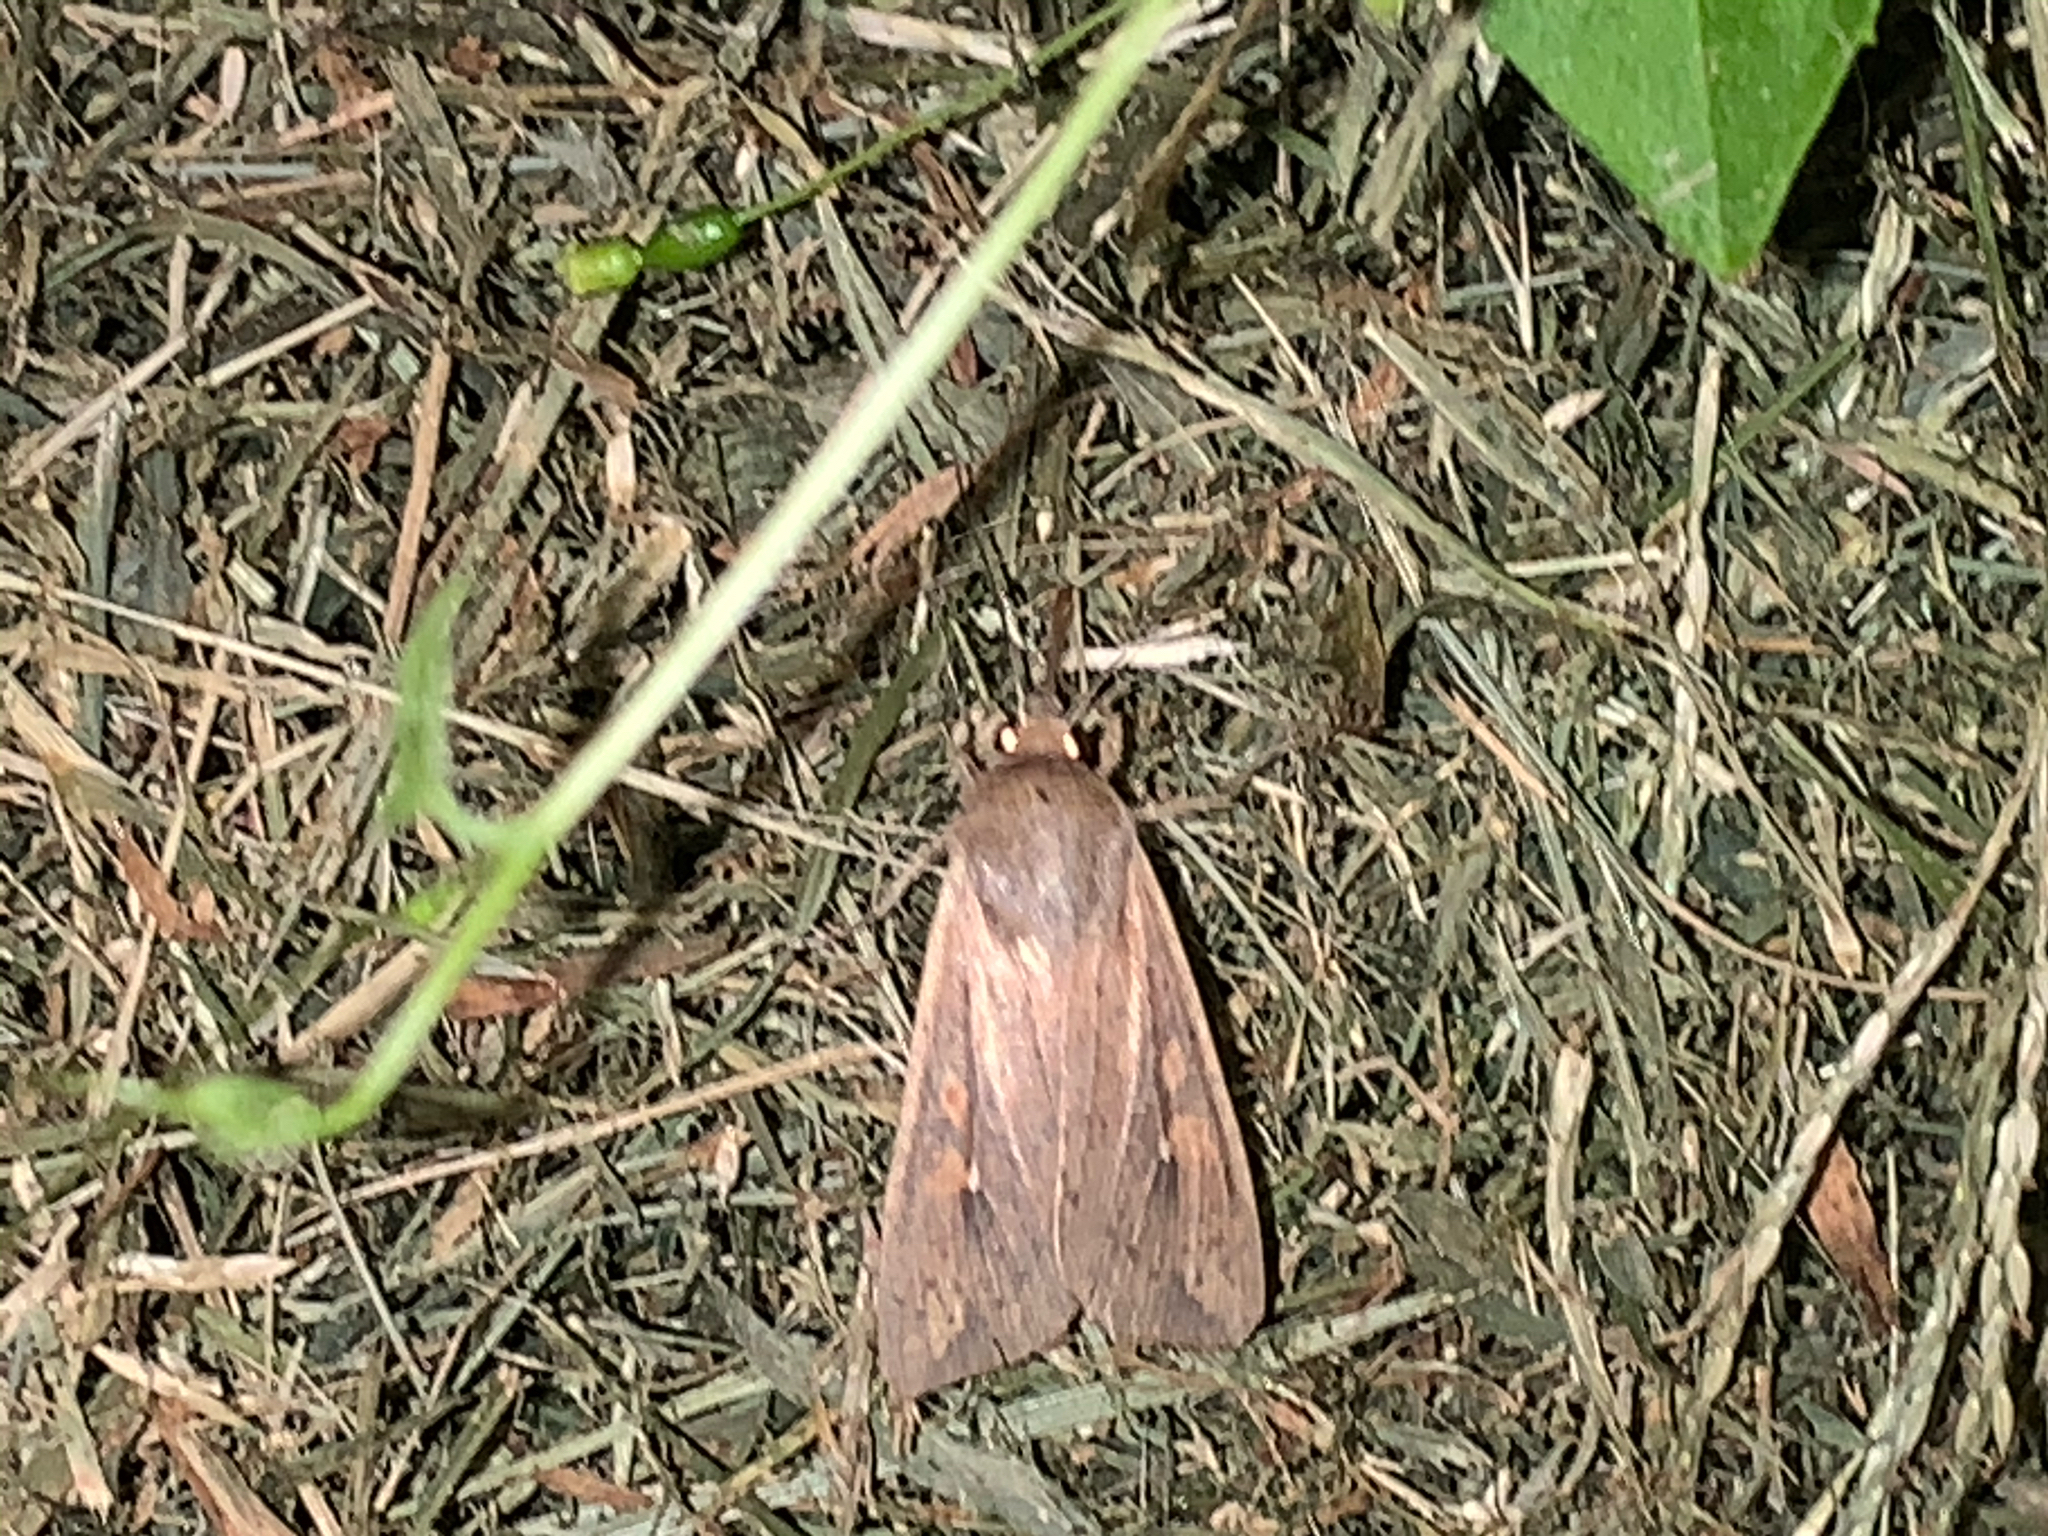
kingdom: Animalia
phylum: Arthropoda
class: Insecta
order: Lepidoptera
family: Noctuidae
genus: Mythimna
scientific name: Mythimna unipuncta
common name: White-speck
